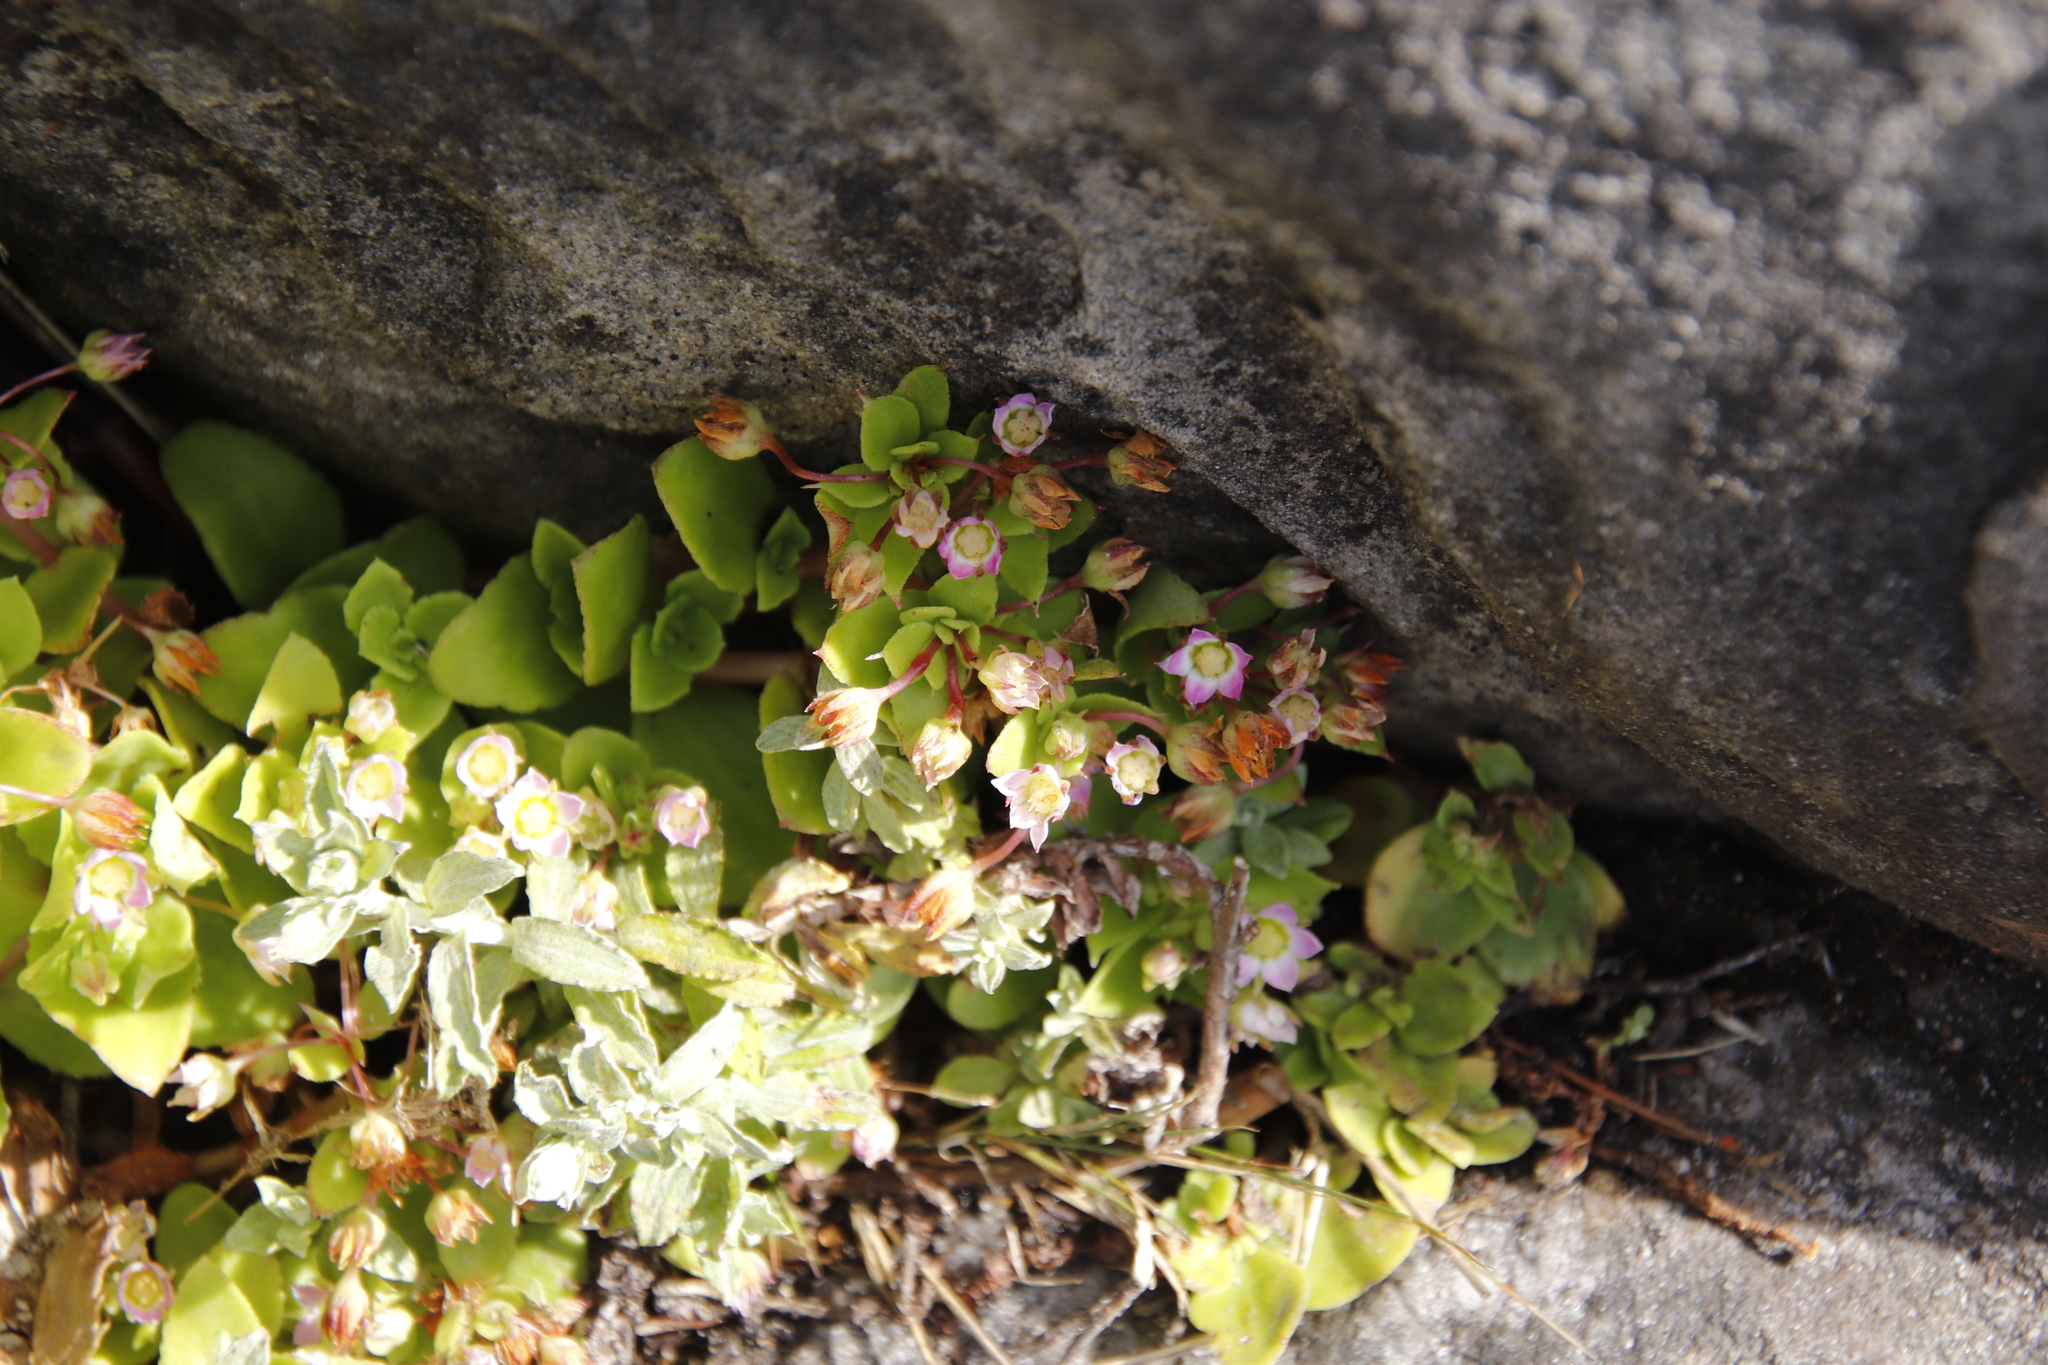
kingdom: Plantae
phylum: Tracheophyta
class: Magnoliopsida
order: Saxifragales
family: Crassulaceae
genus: Crassula
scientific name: Crassula pellucida
